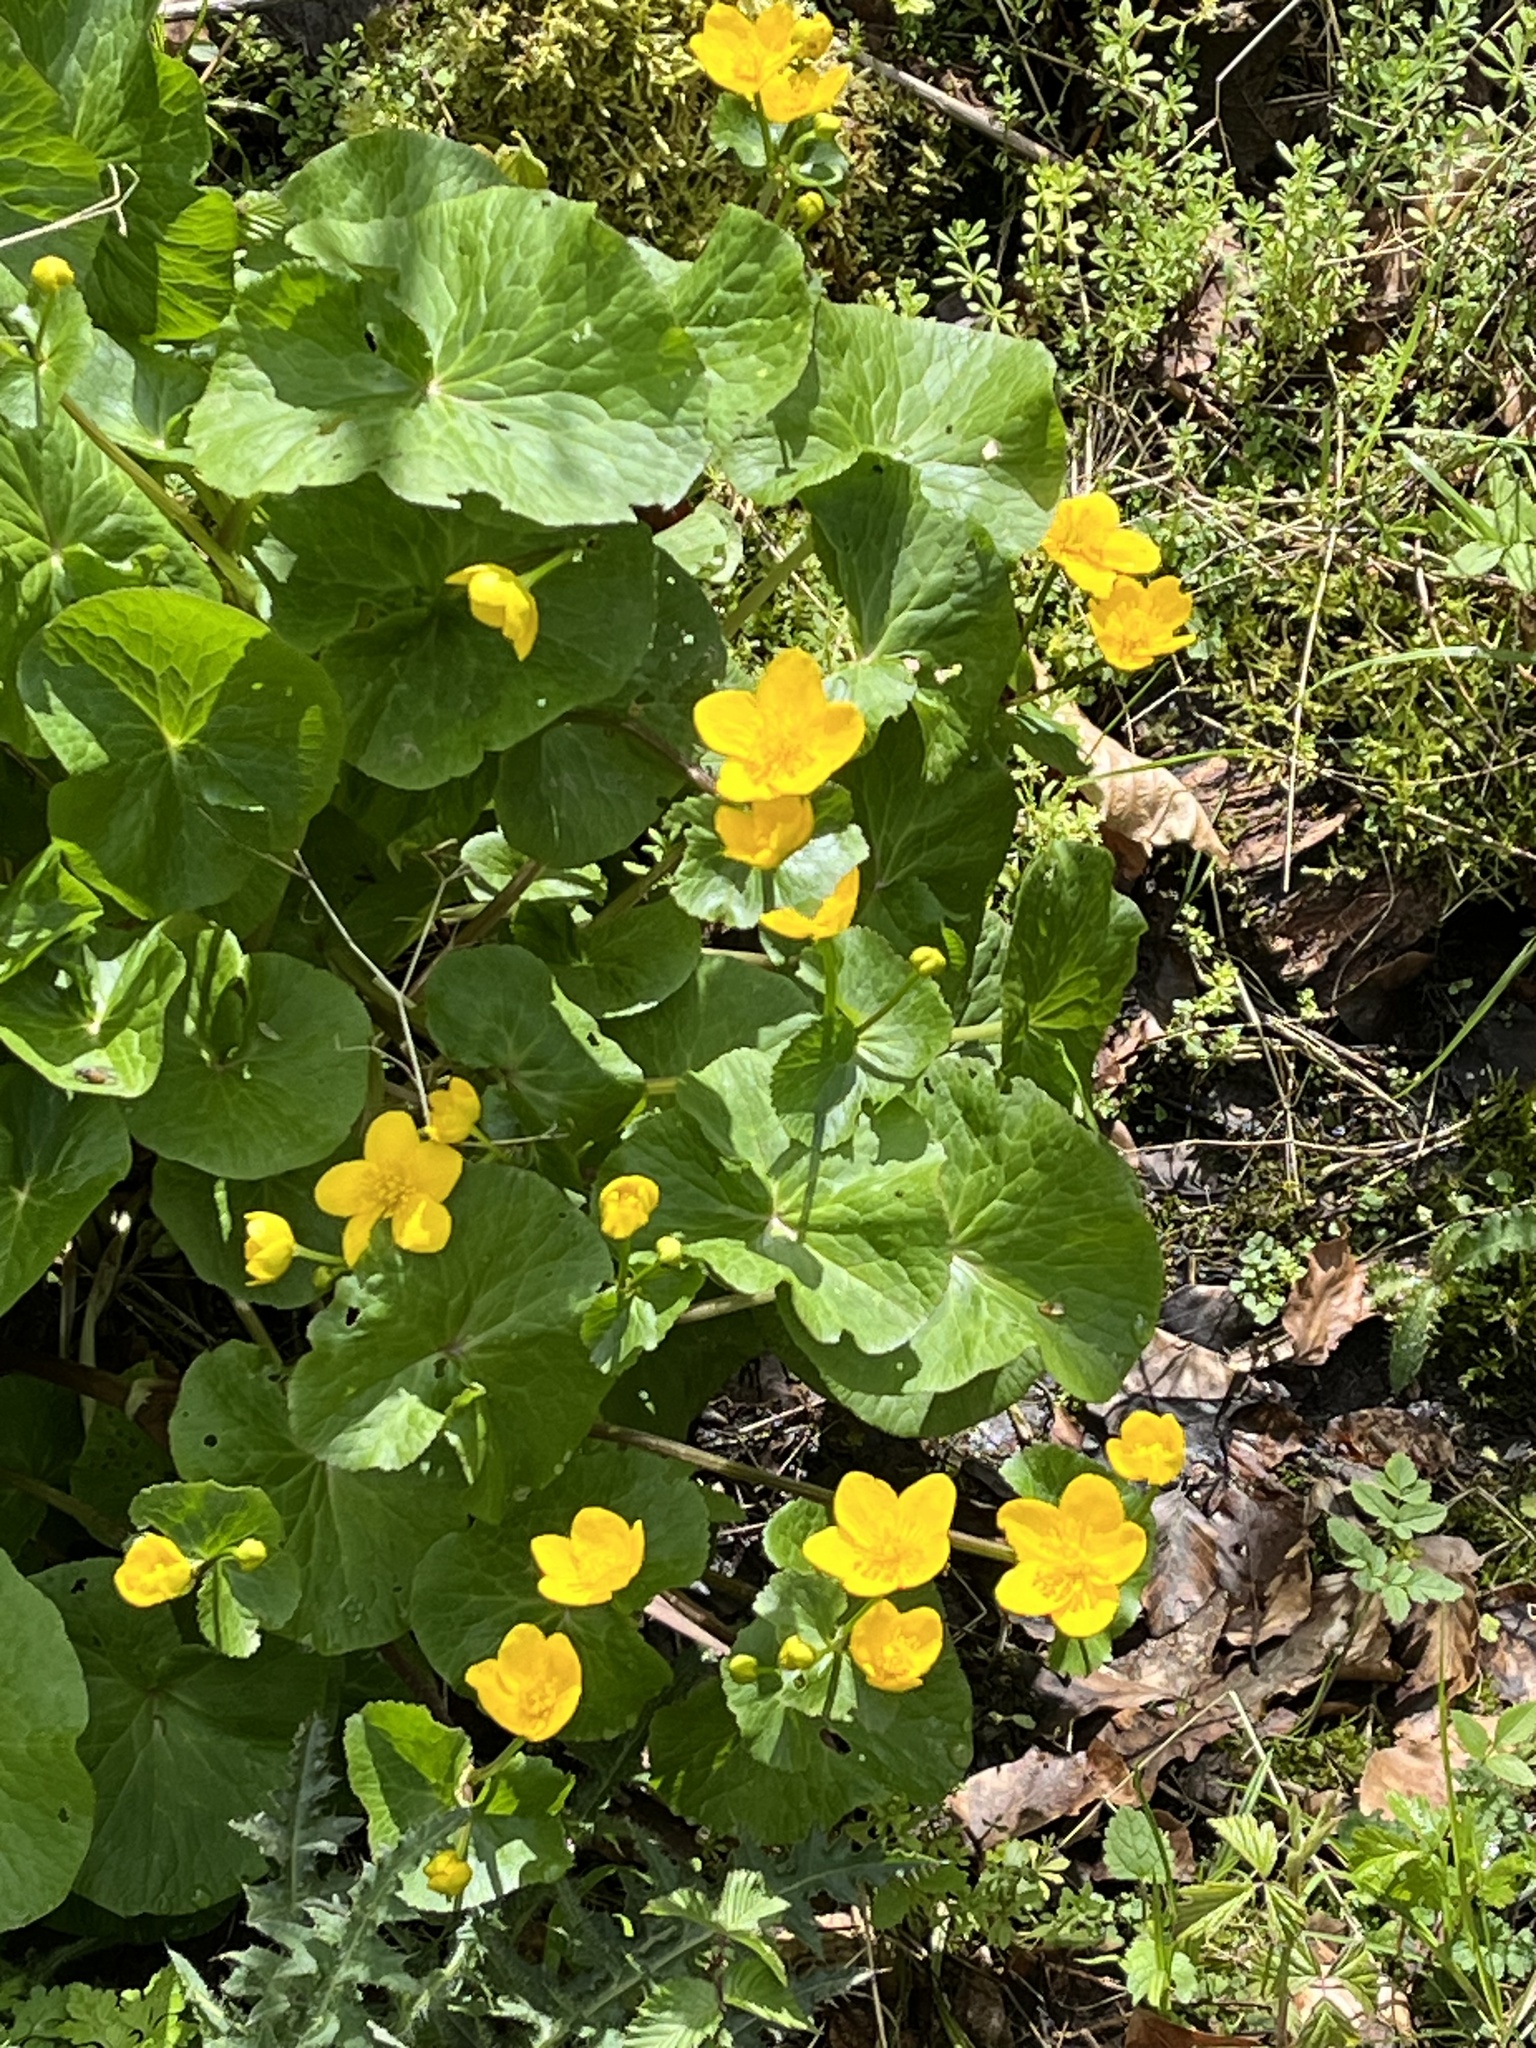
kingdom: Plantae
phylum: Tracheophyta
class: Magnoliopsida
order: Ranunculales
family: Ranunculaceae
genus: Caltha
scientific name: Caltha palustris
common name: Marsh marigold
